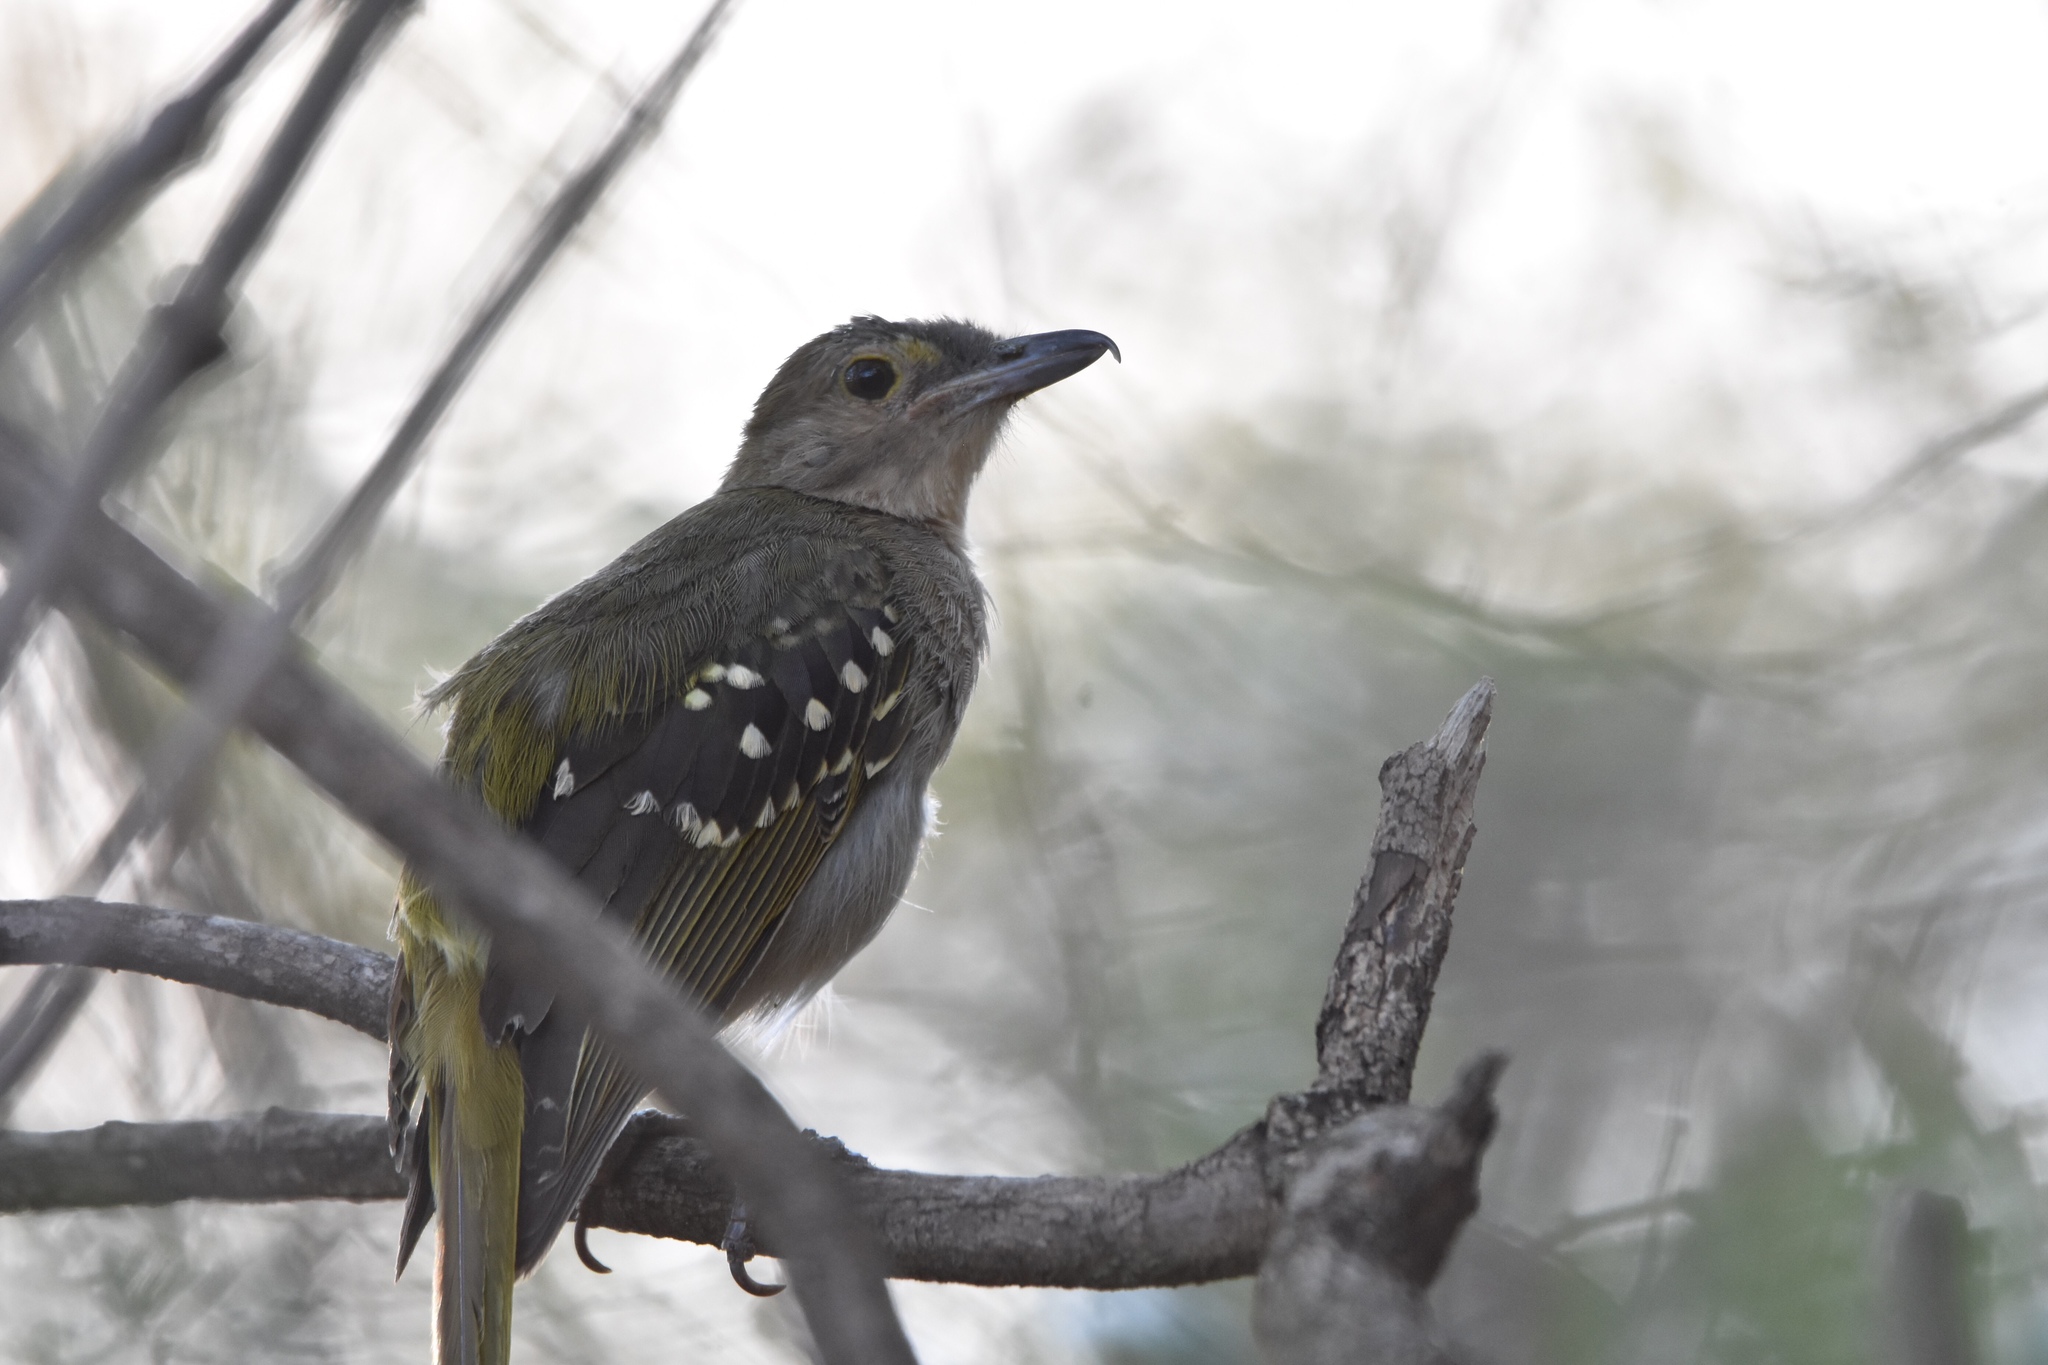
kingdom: Animalia
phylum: Chordata
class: Aves
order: Passeriformes
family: Nicatoridae
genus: Nicator
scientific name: Nicator gularis
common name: Eastern nicator
